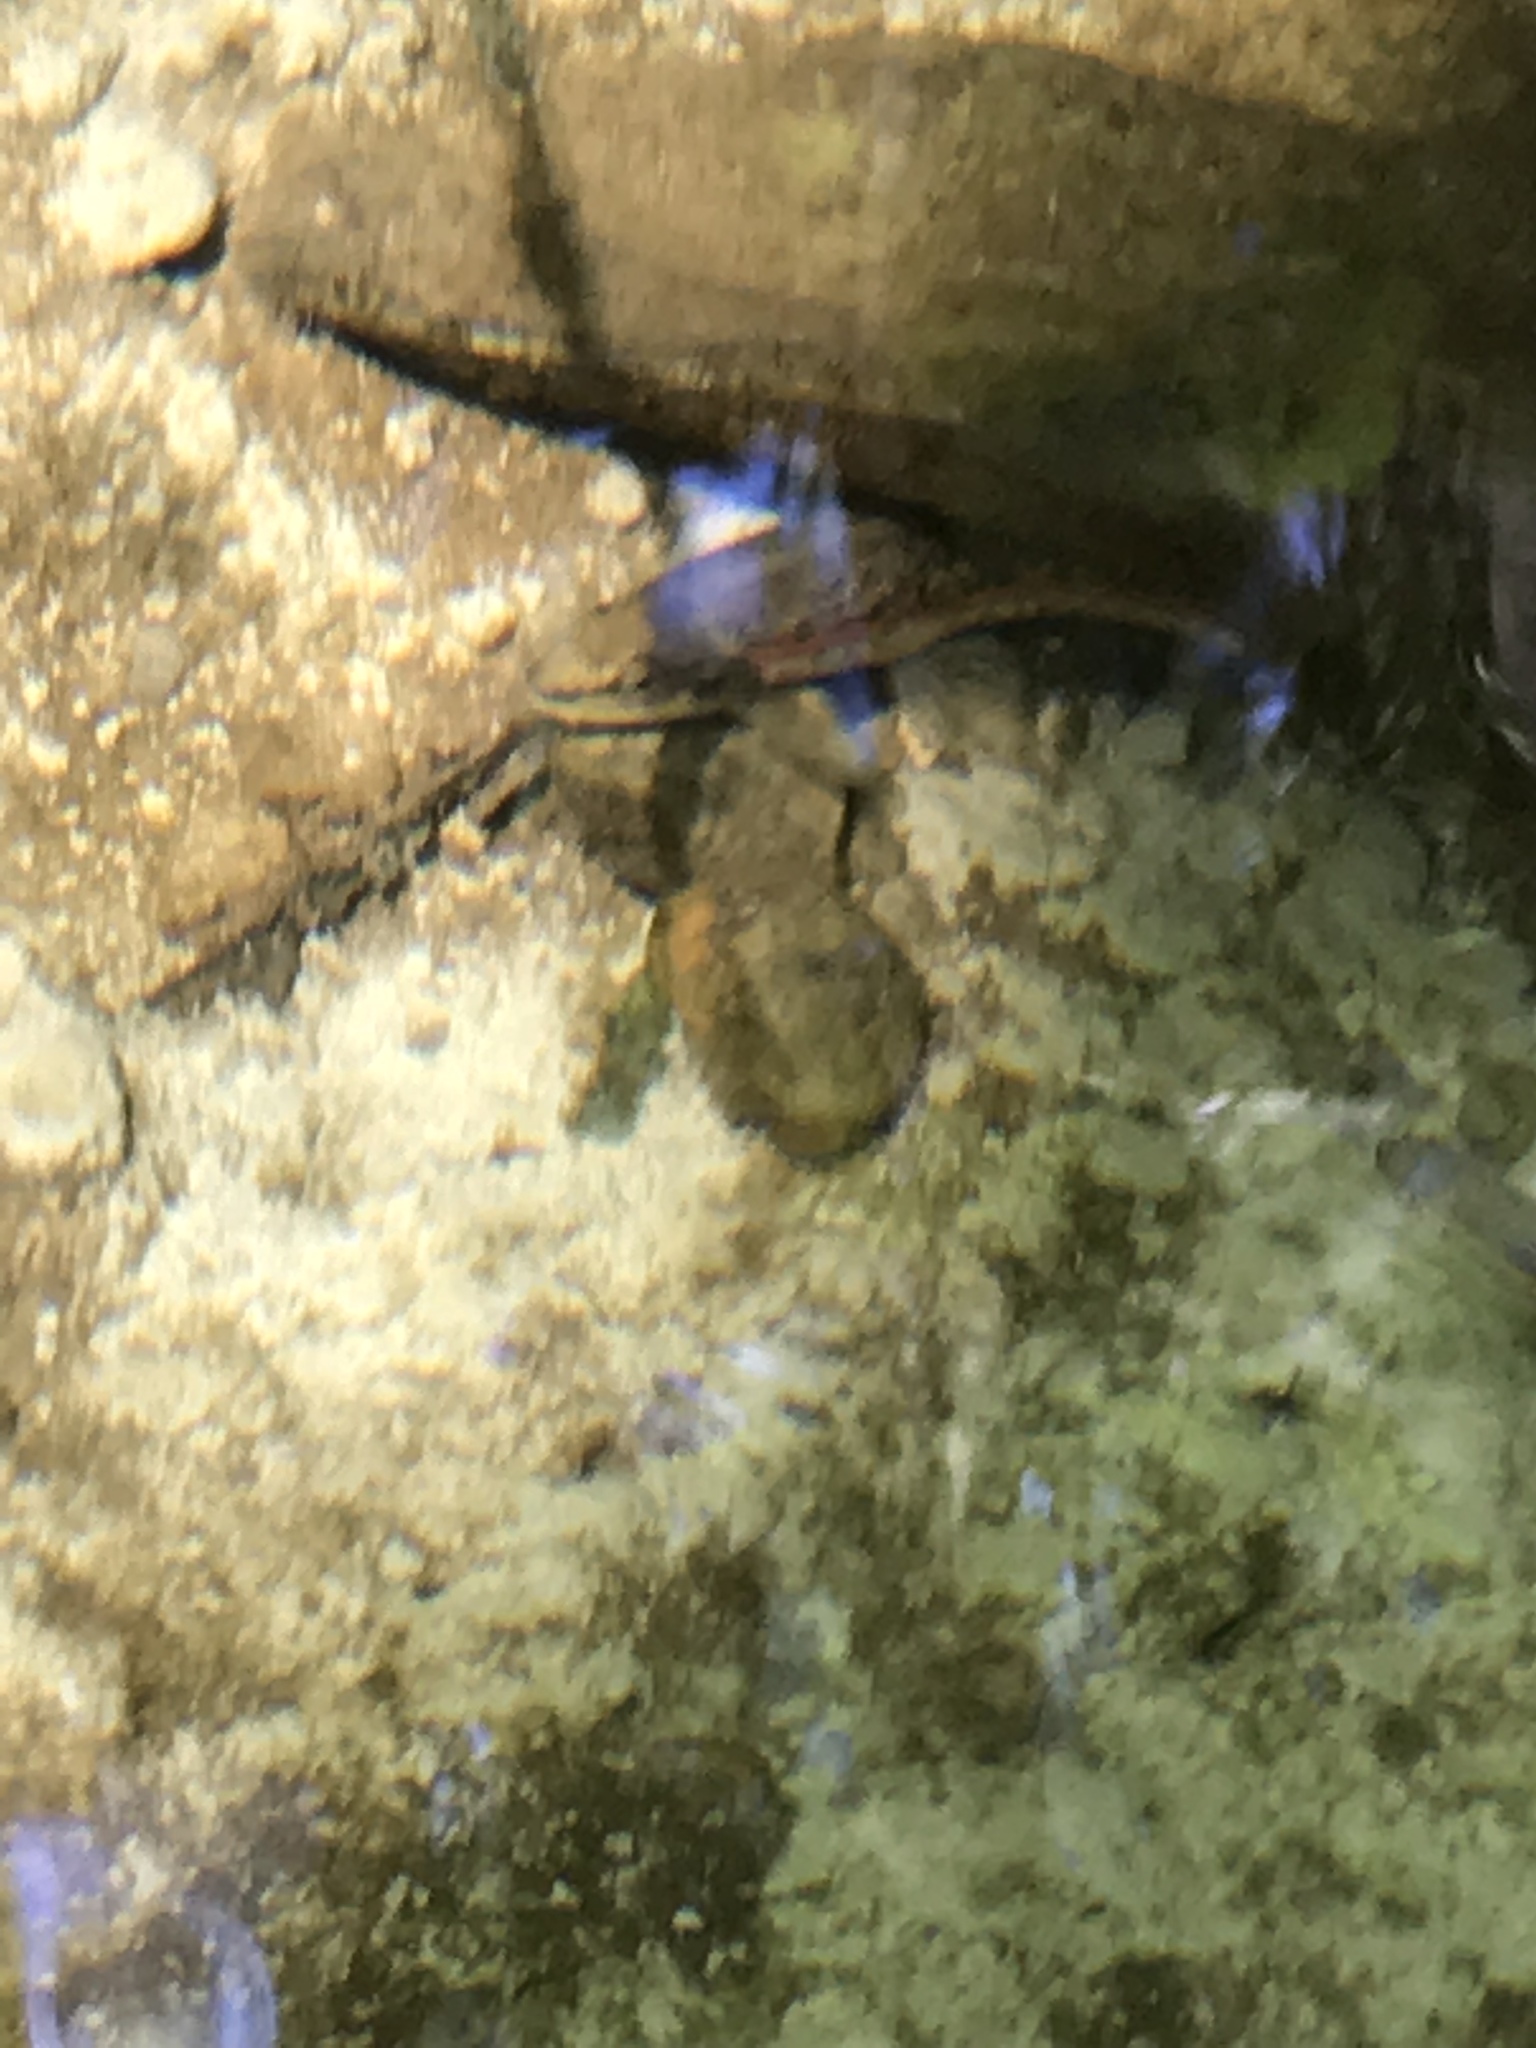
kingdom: Animalia
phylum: Chordata
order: Cypriniformes
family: Cyprinidae
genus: Rhinichthys
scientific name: Rhinichthys obtusus
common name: Western blacknose dace
